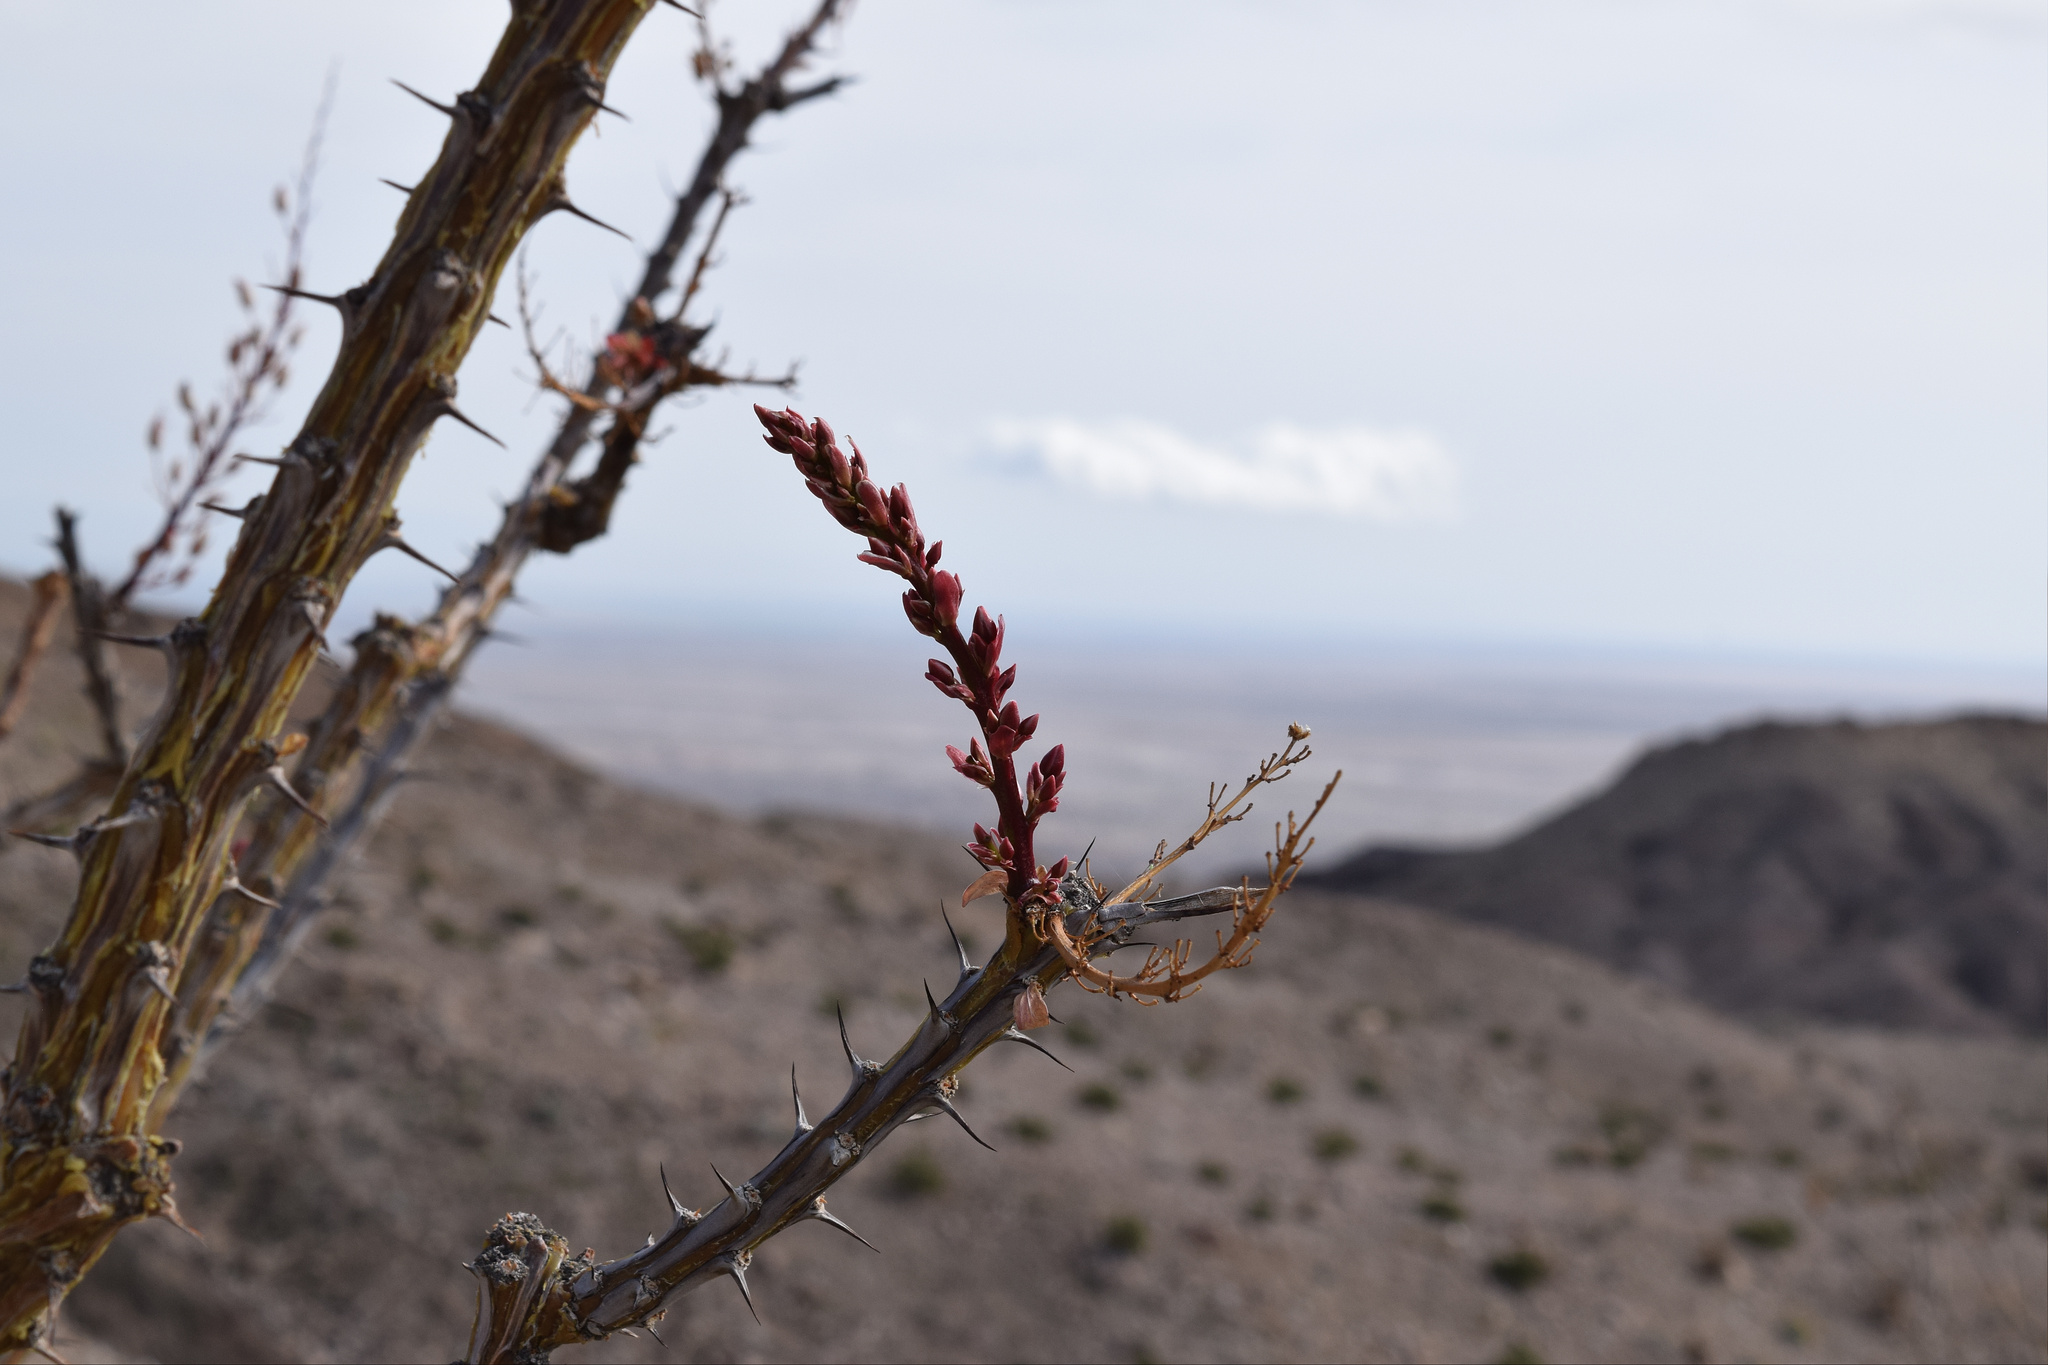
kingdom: Plantae
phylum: Tracheophyta
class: Magnoliopsida
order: Ericales
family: Fouquieriaceae
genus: Fouquieria
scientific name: Fouquieria splendens
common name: Vine-cactus
